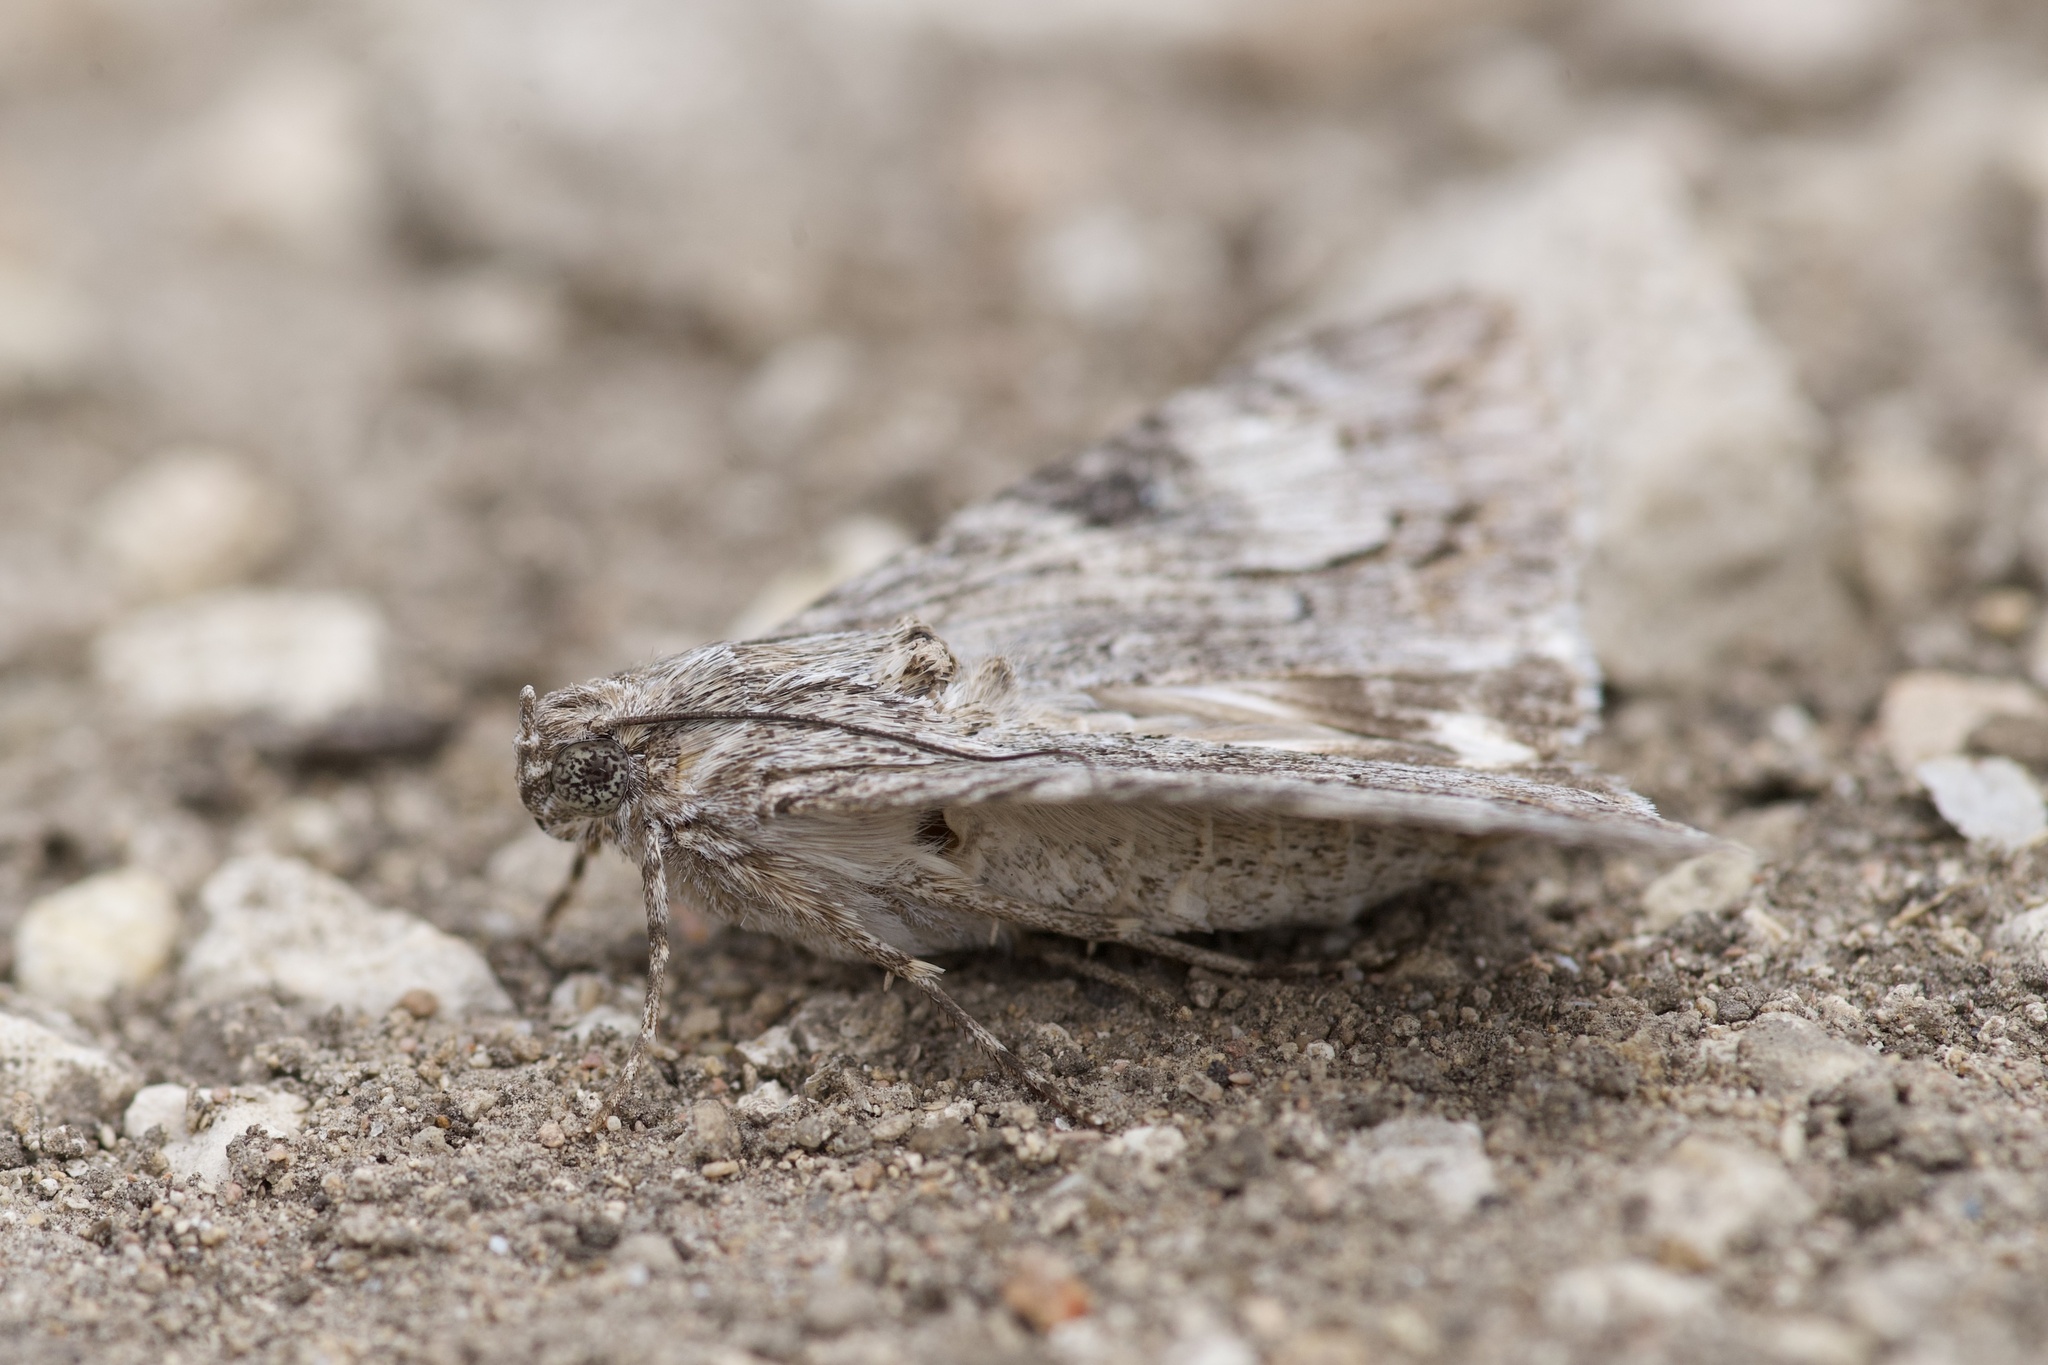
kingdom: Animalia
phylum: Arthropoda
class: Insecta
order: Lepidoptera
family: Erebidae
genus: Melipotis
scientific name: Melipotis jucunda
